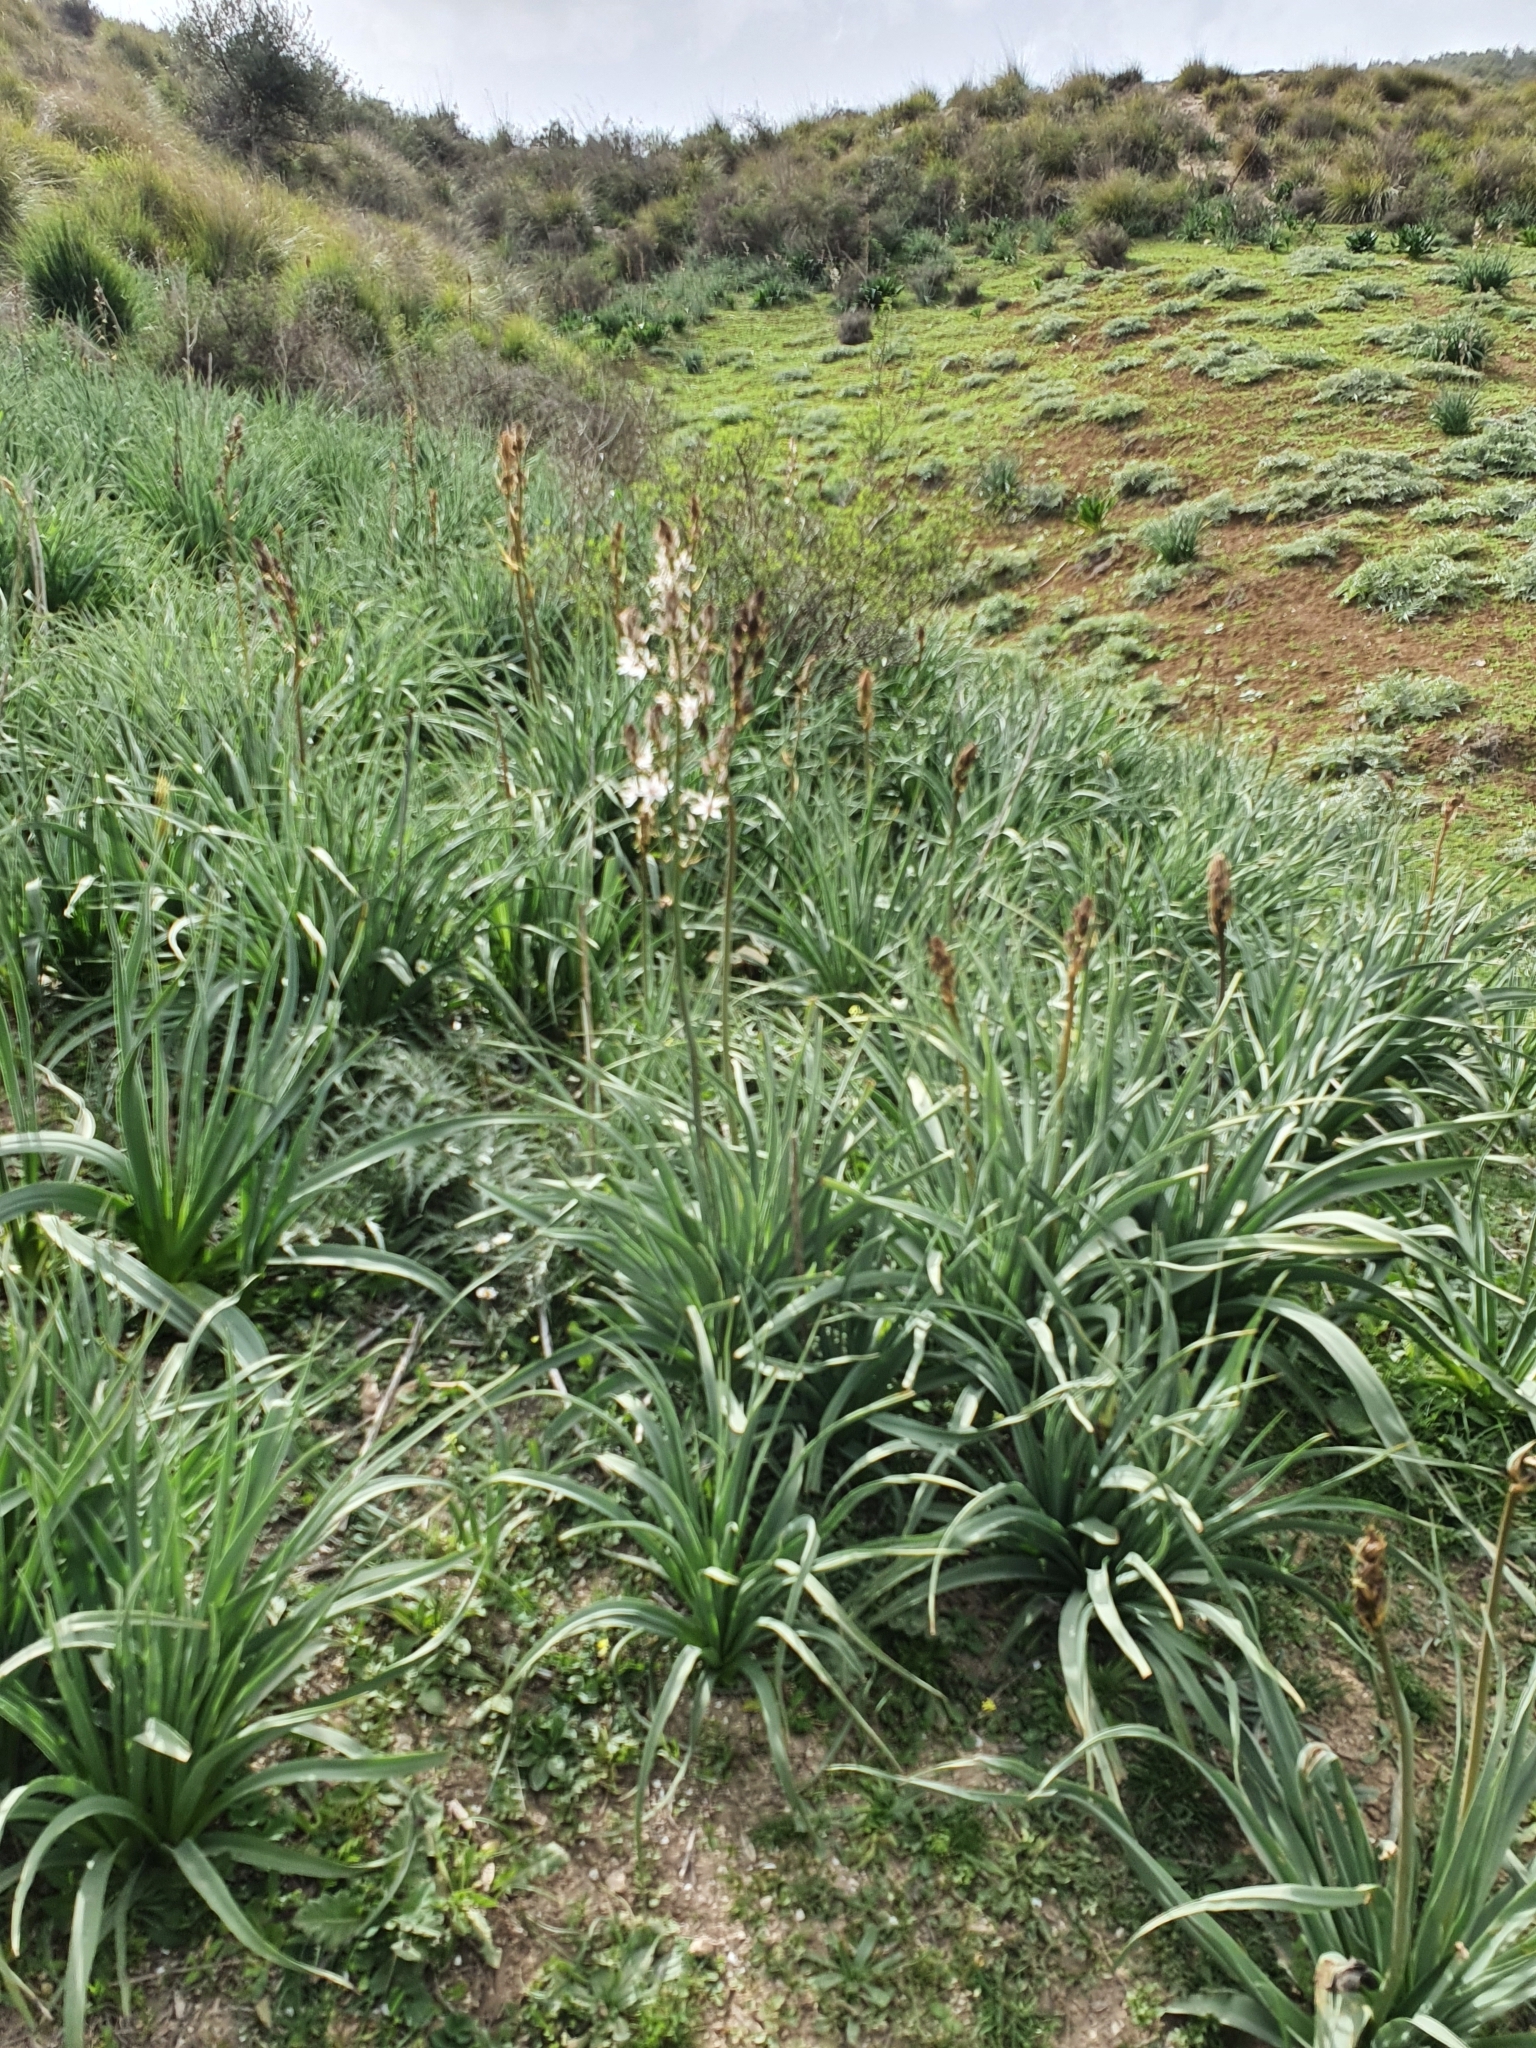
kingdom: Plantae
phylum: Tracheophyta
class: Liliopsida
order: Asparagales
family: Asphodelaceae
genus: Asphodelus
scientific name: Asphodelus ramosus
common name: Silverrod
